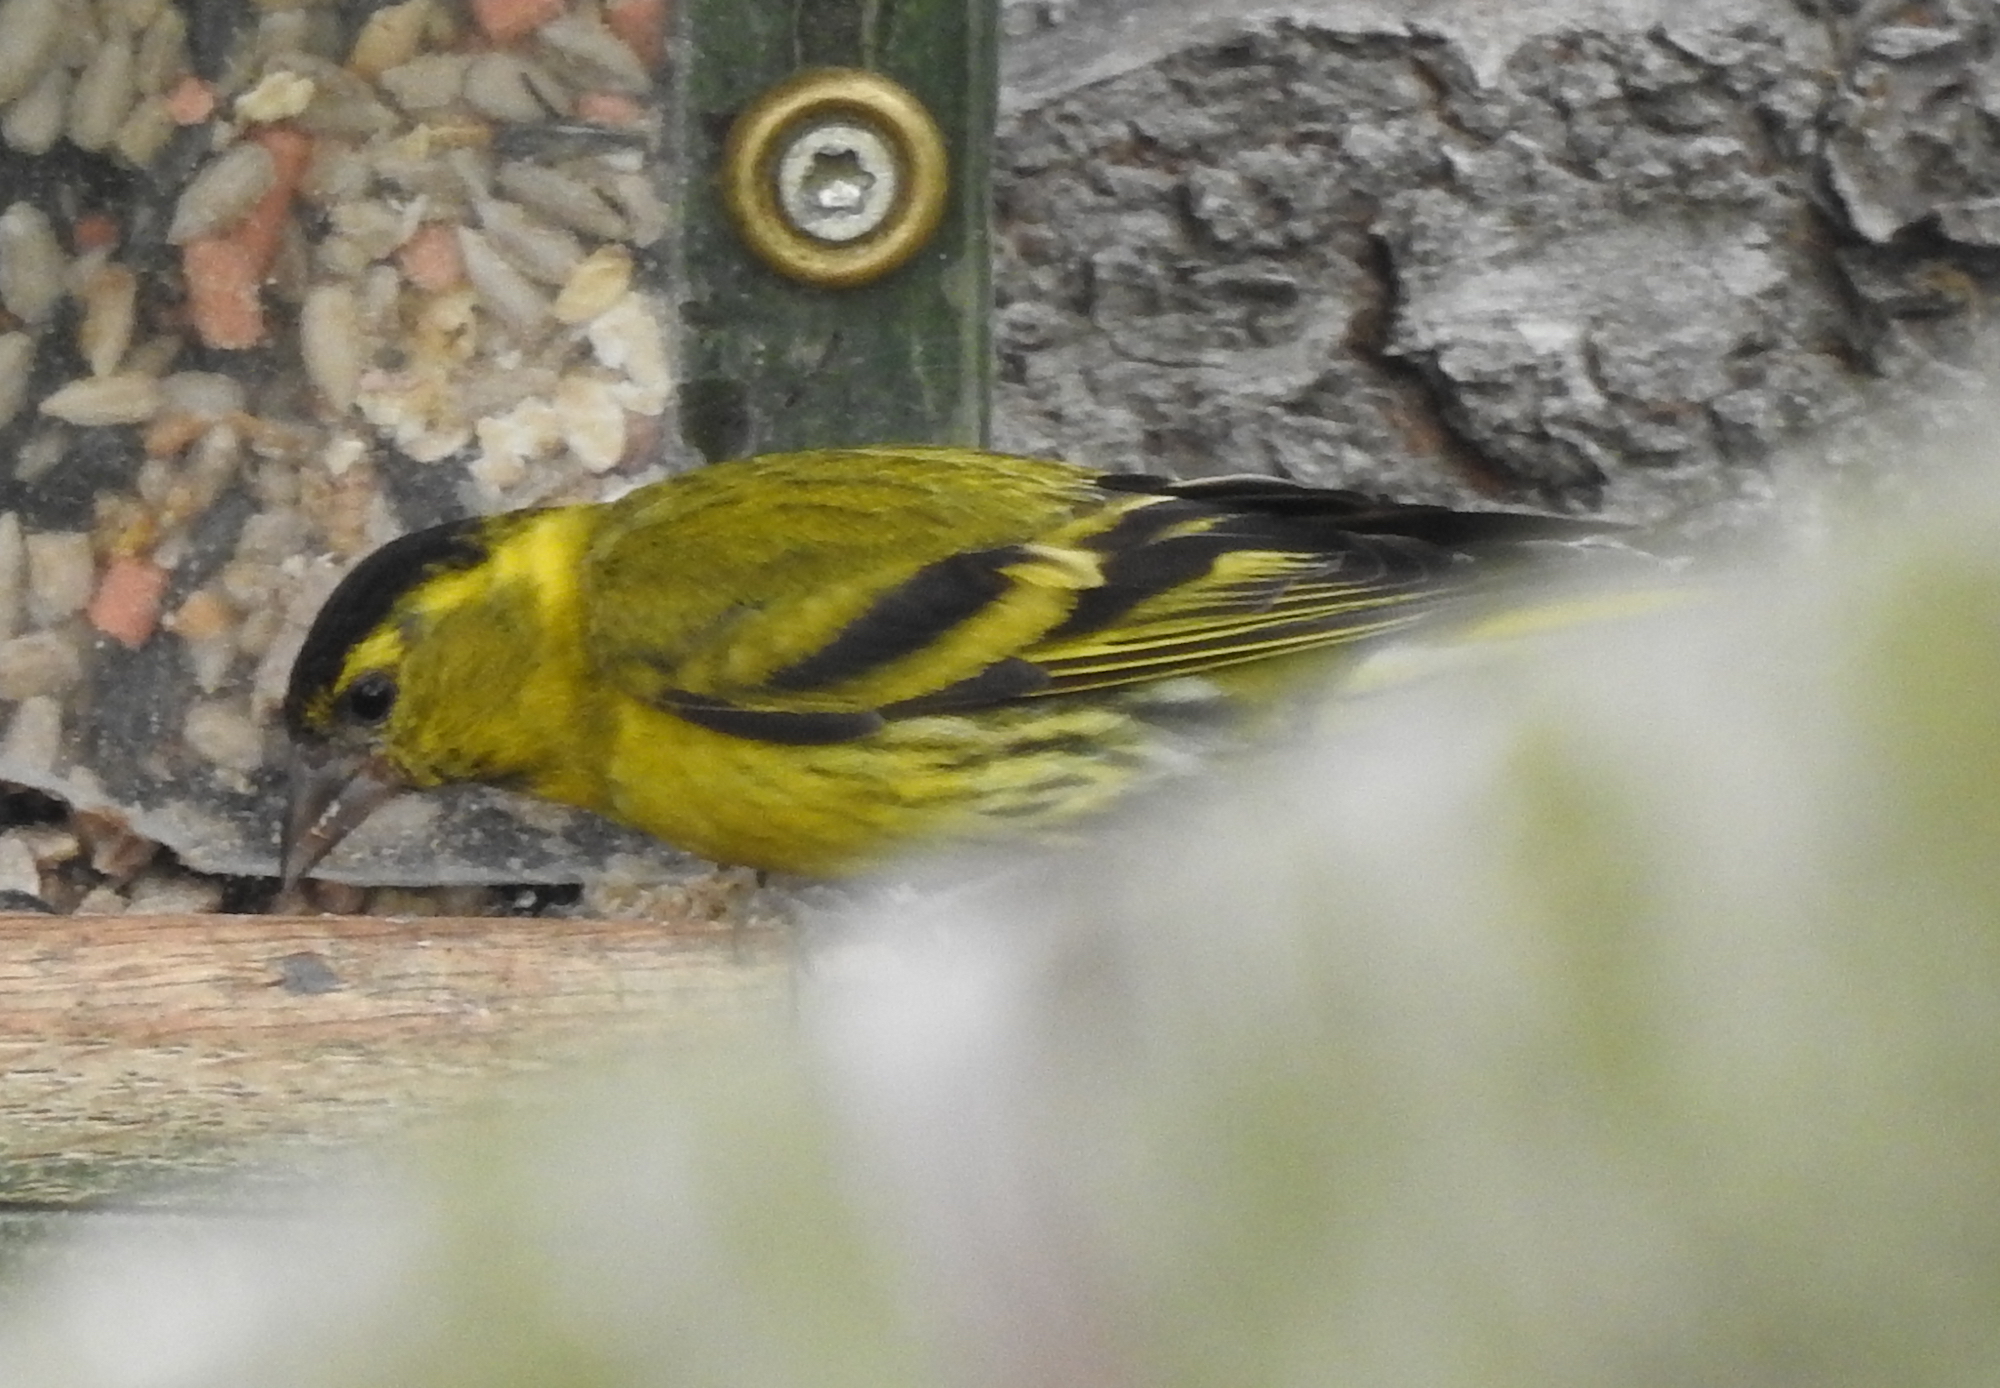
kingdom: Animalia
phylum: Chordata
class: Aves
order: Passeriformes
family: Fringillidae
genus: Spinus
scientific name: Spinus spinus
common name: Eurasian siskin
